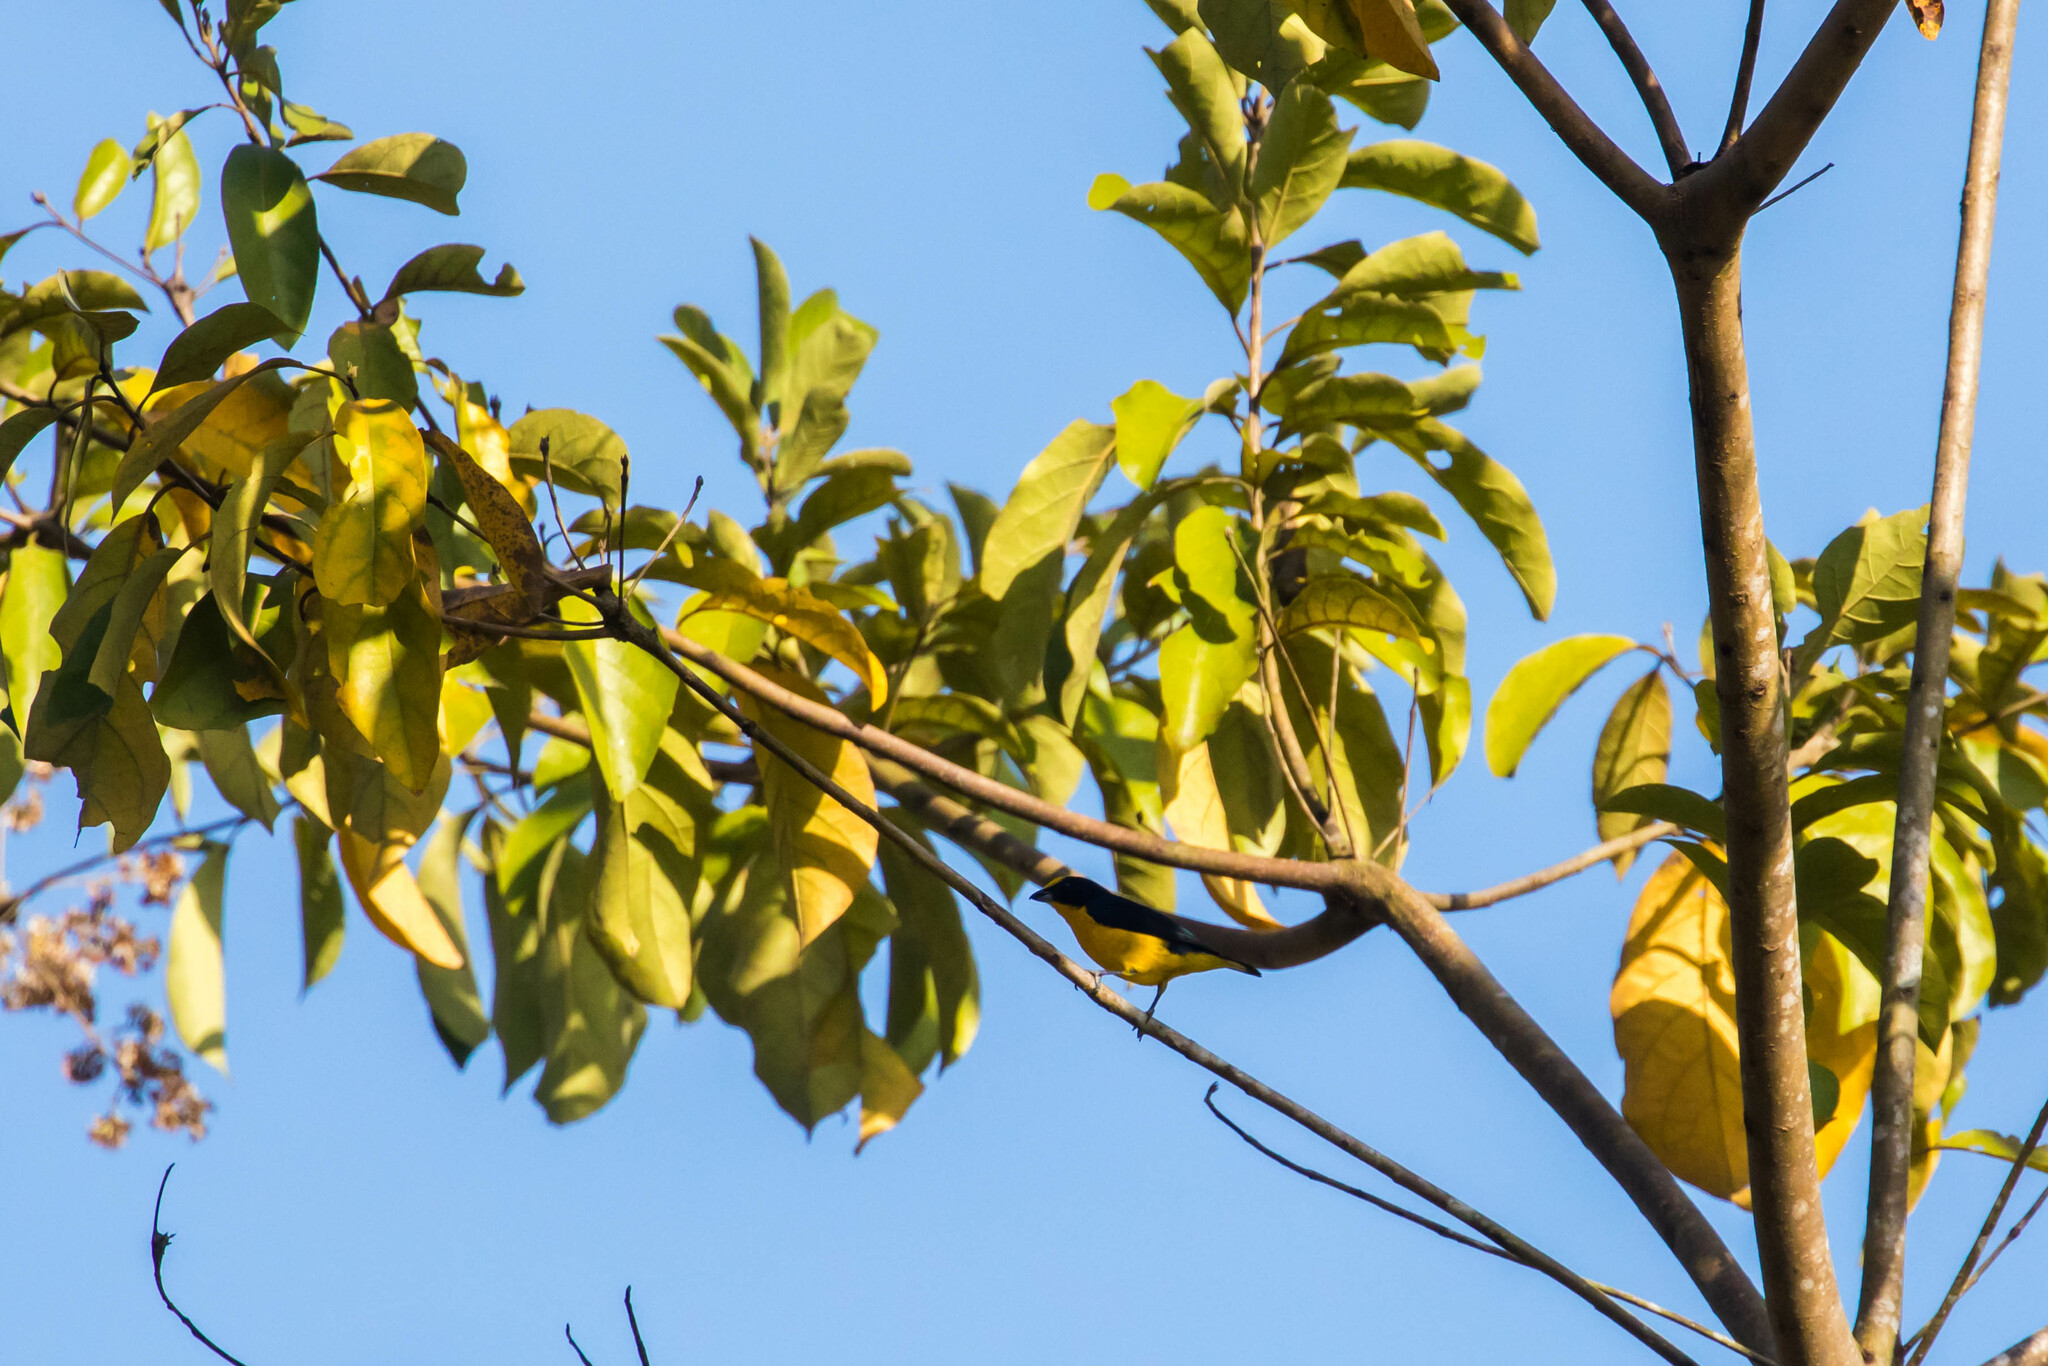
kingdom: Animalia
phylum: Chordata
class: Aves
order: Passeriformes
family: Fringillidae
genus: Euphonia
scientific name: Euphonia laniirostris
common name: Thick-billed euphonia
